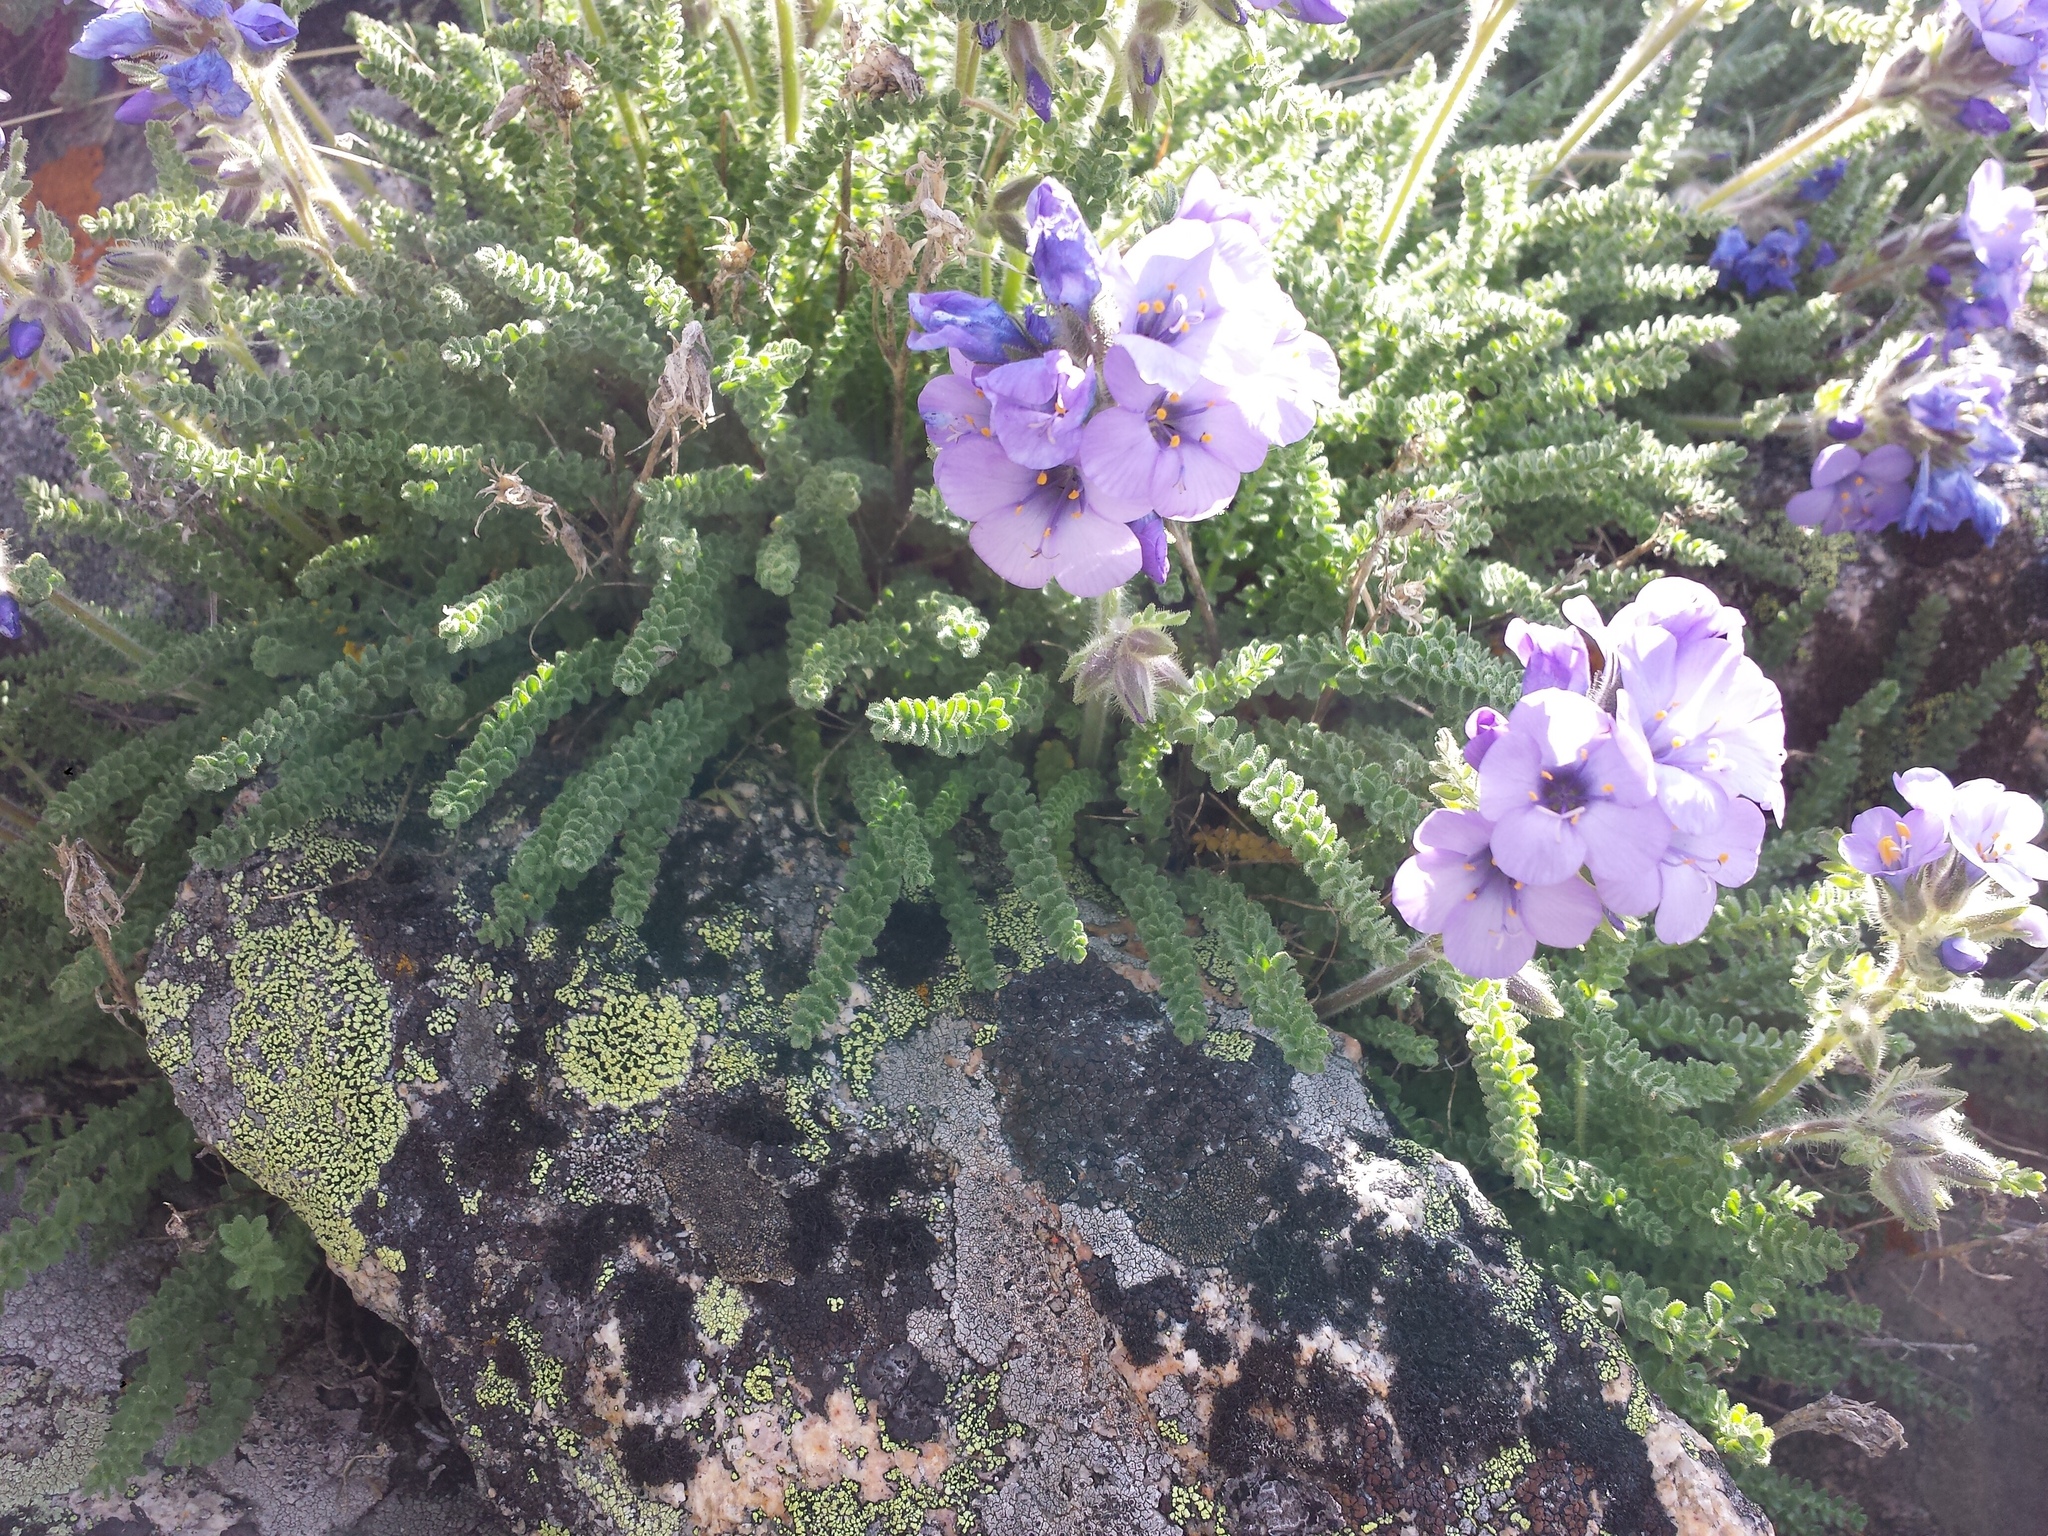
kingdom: Plantae
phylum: Tracheophyta
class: Magnoliopsida
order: Ericales
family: Polemoniaceae
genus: Polemonium
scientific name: Polemonium viscosum
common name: Skunk jacob's-ladder
